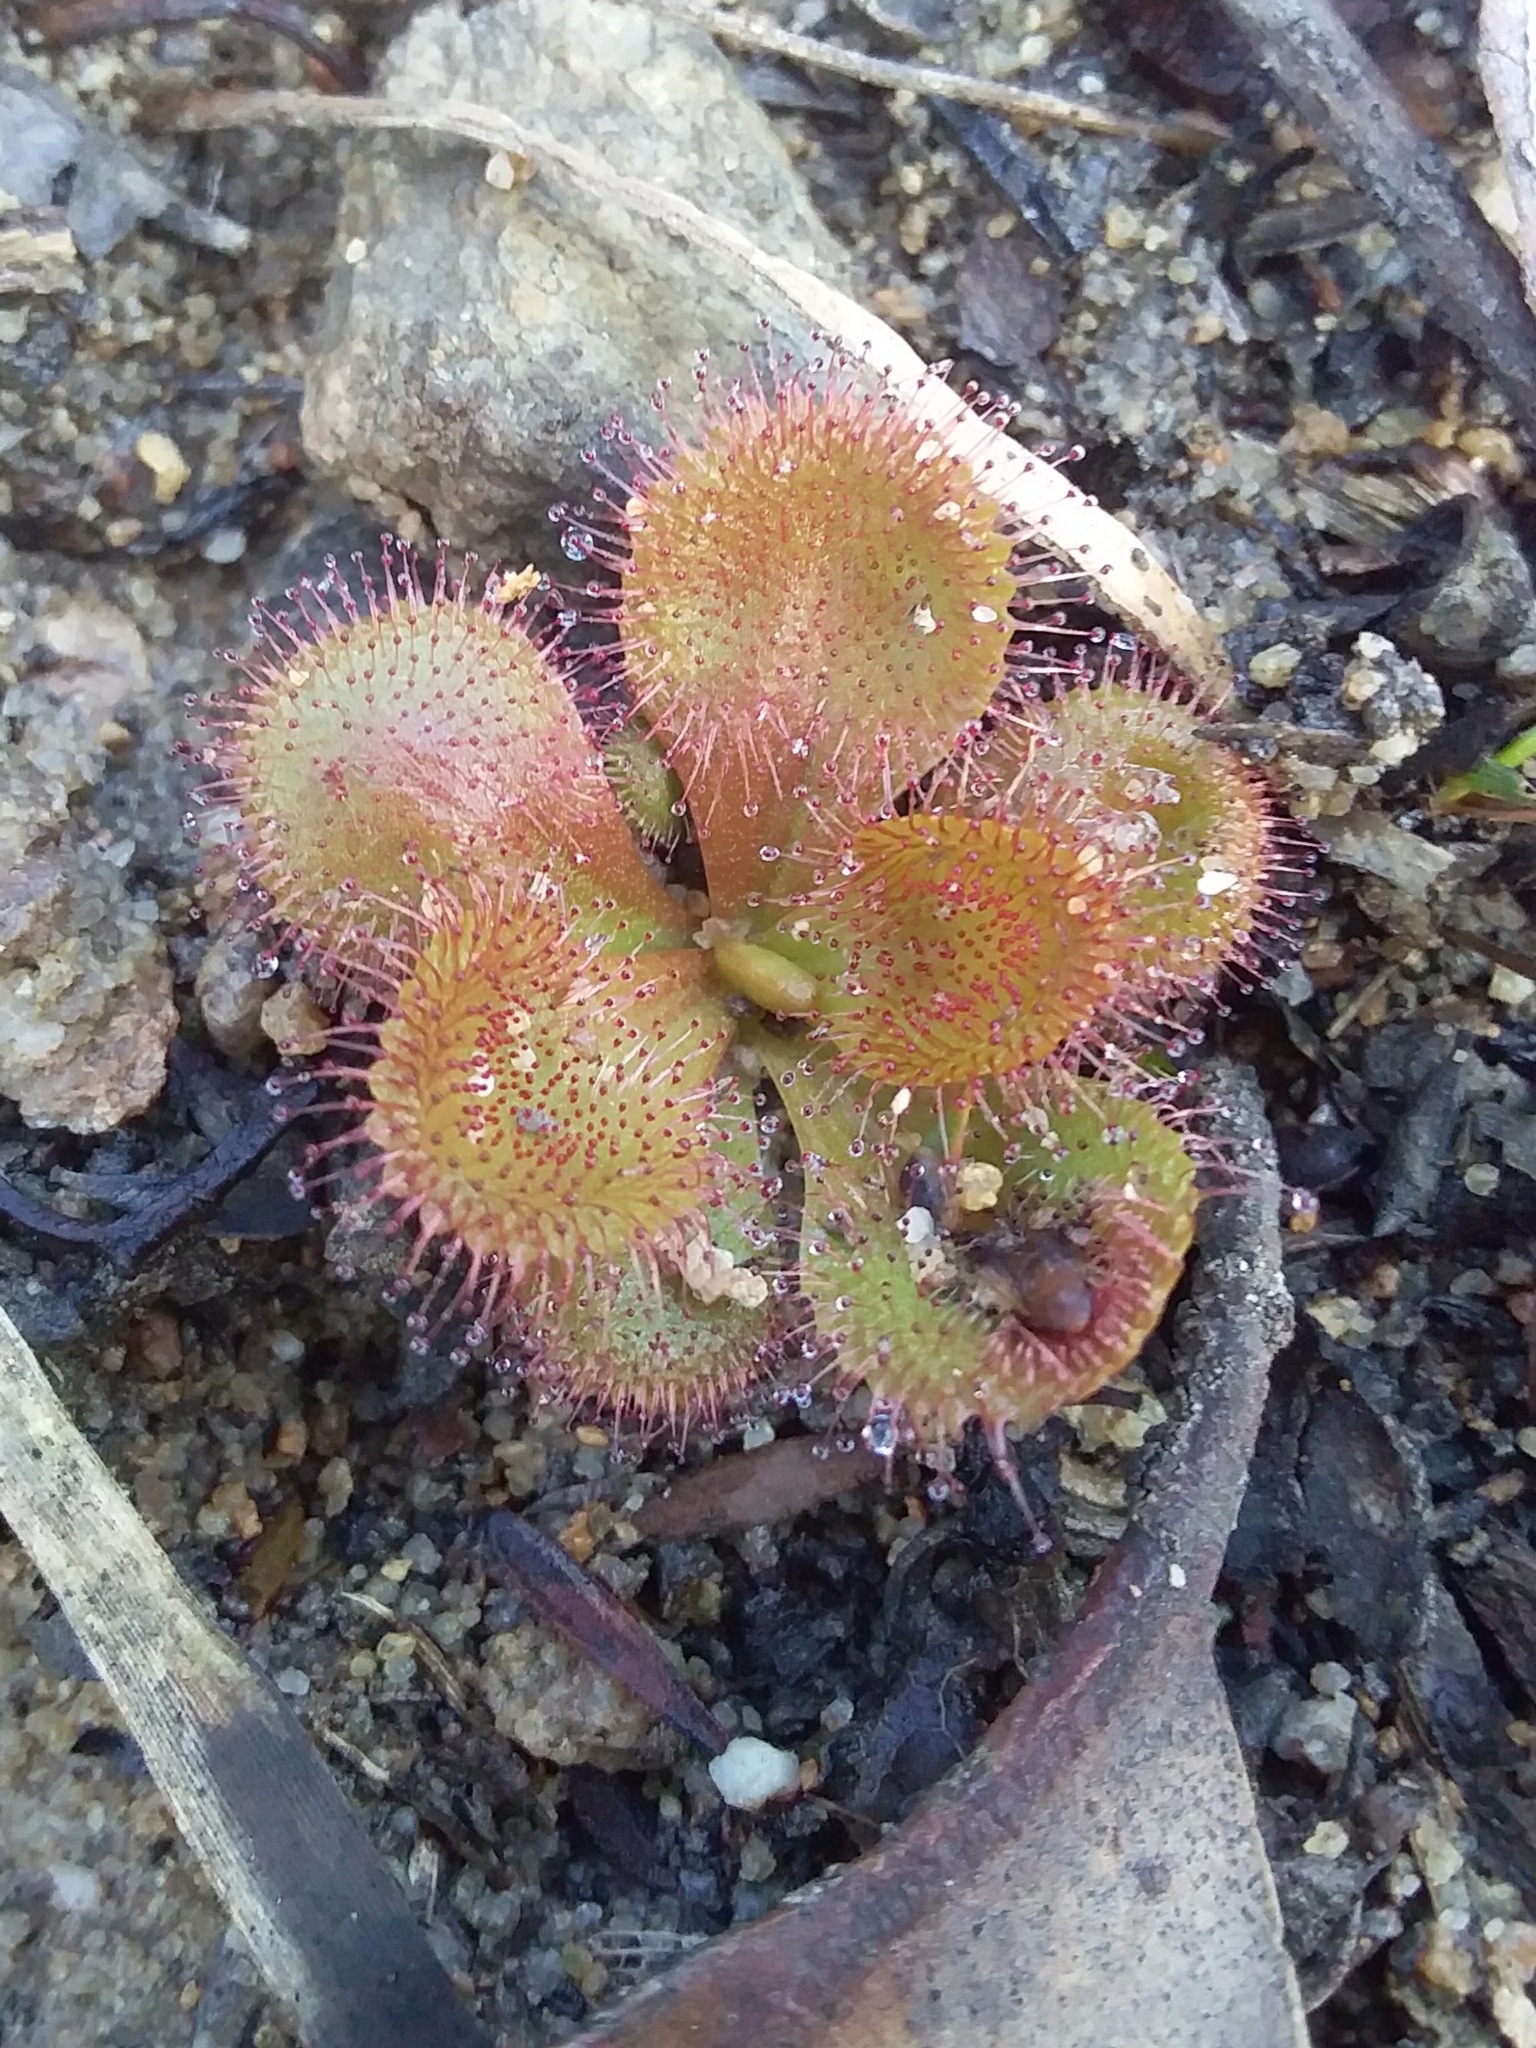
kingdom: Plantae
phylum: Tracheophyta
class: Magnoliopsida
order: Caryophyllales
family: Droseraceae
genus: Drosera
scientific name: Drosera whittakeri
